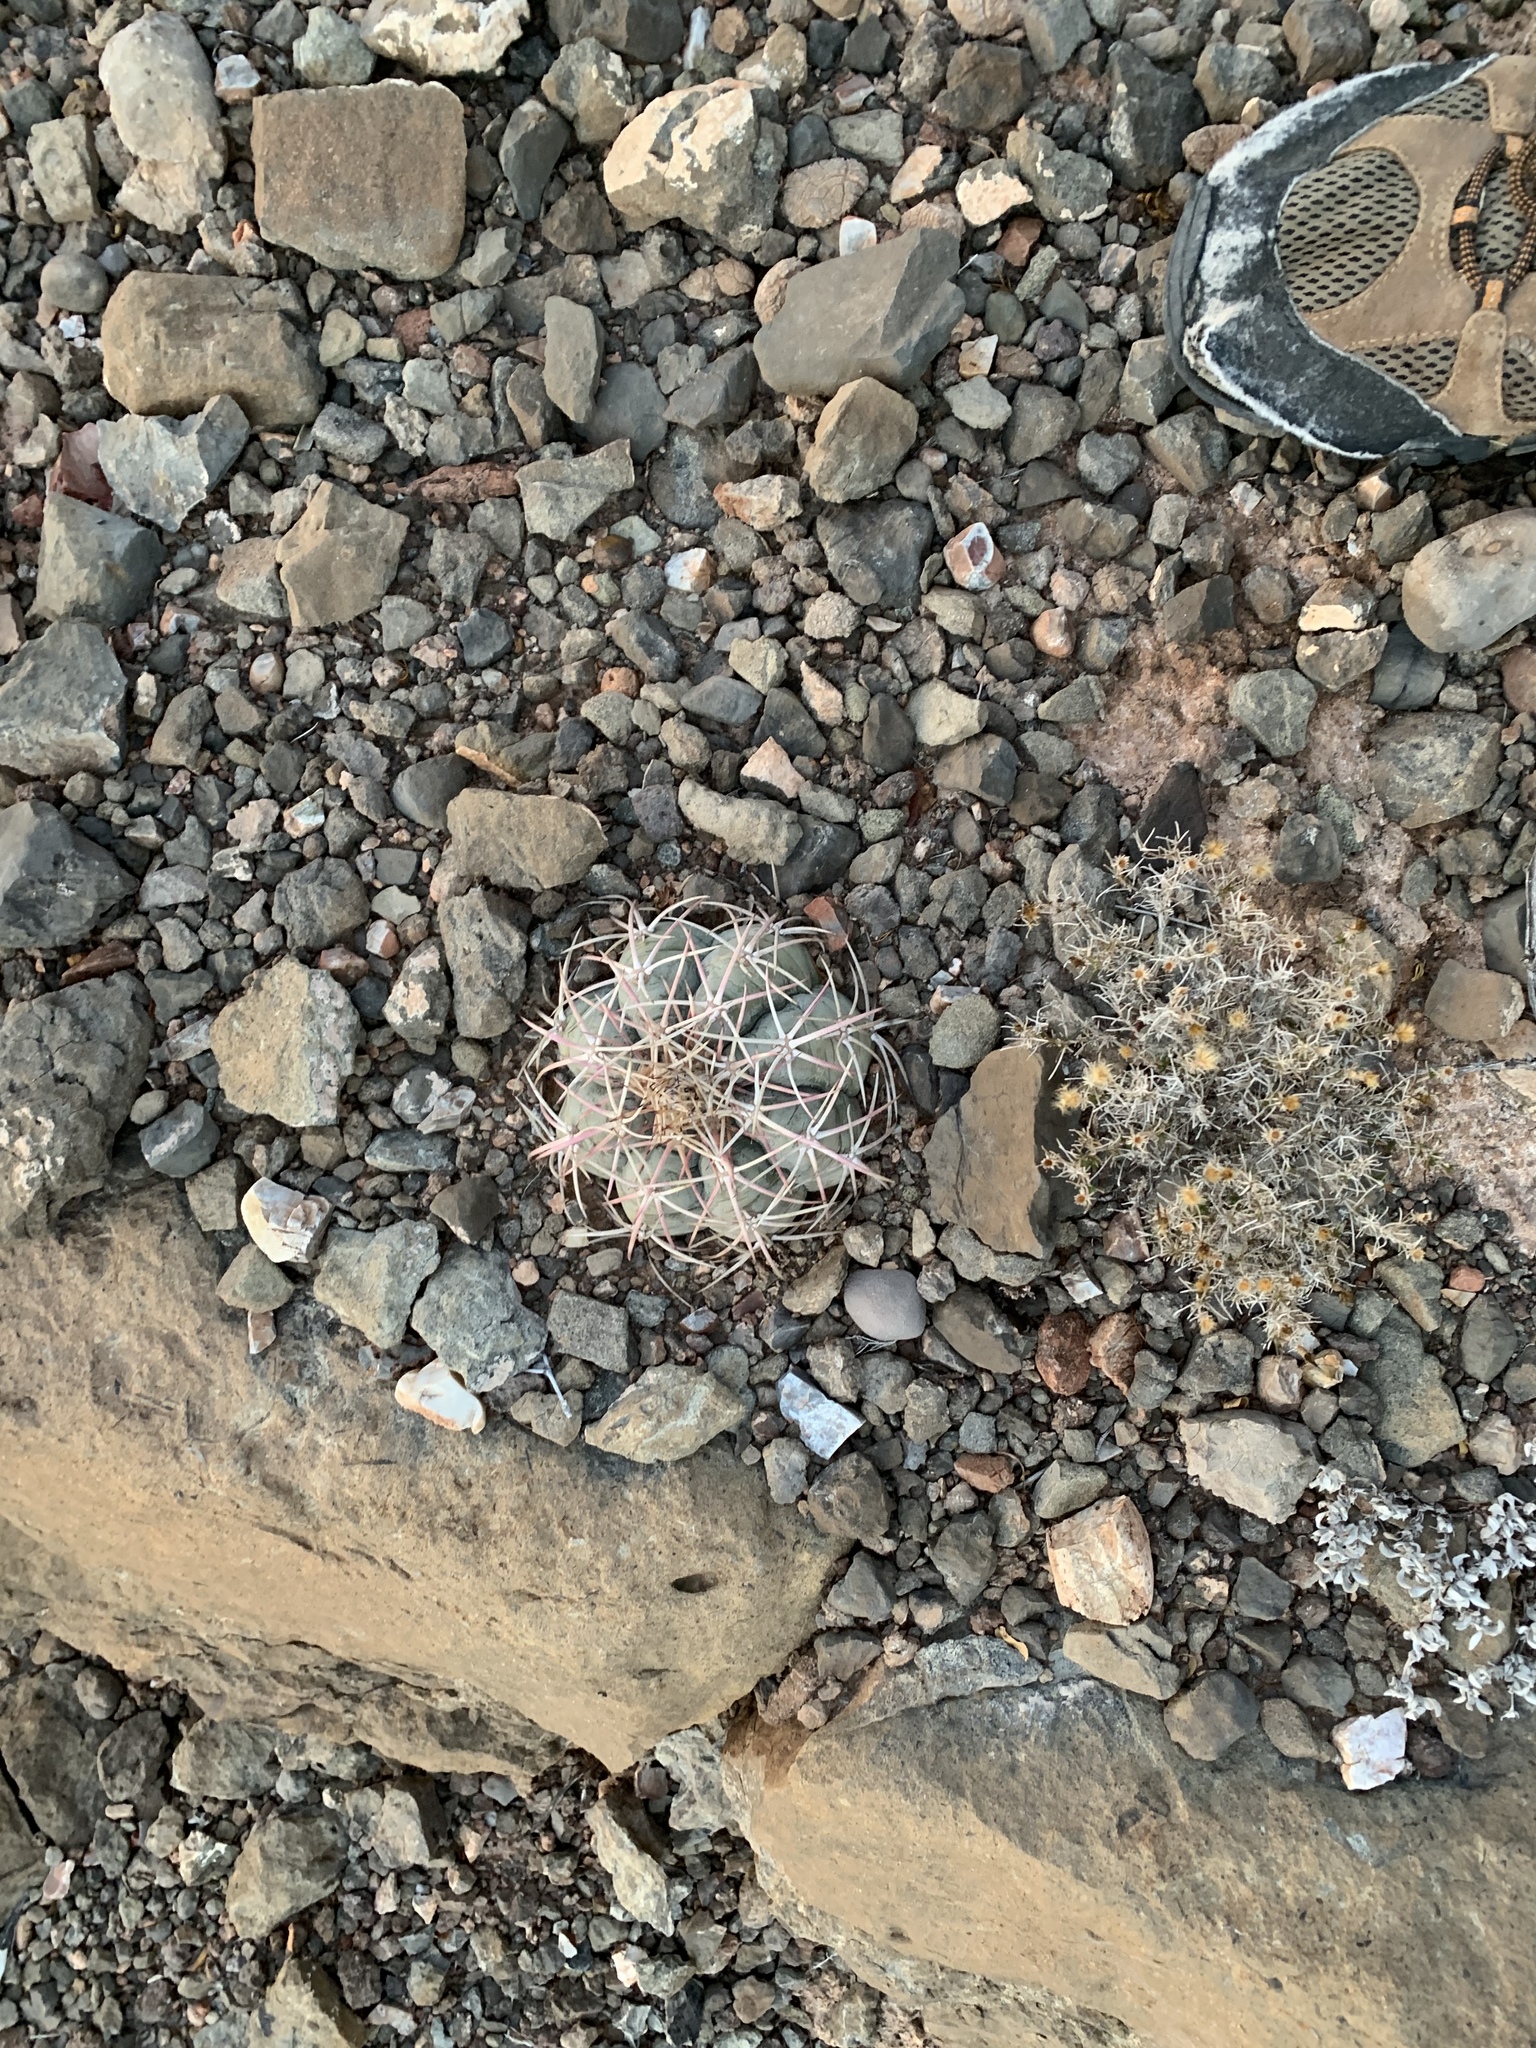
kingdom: Plantae
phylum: Tracheophyta
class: Magnoliopsida
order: Caryophyllales
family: Cactaceae
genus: Echinocactus
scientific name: Echinocactus horizonthalonius
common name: Devilshead
